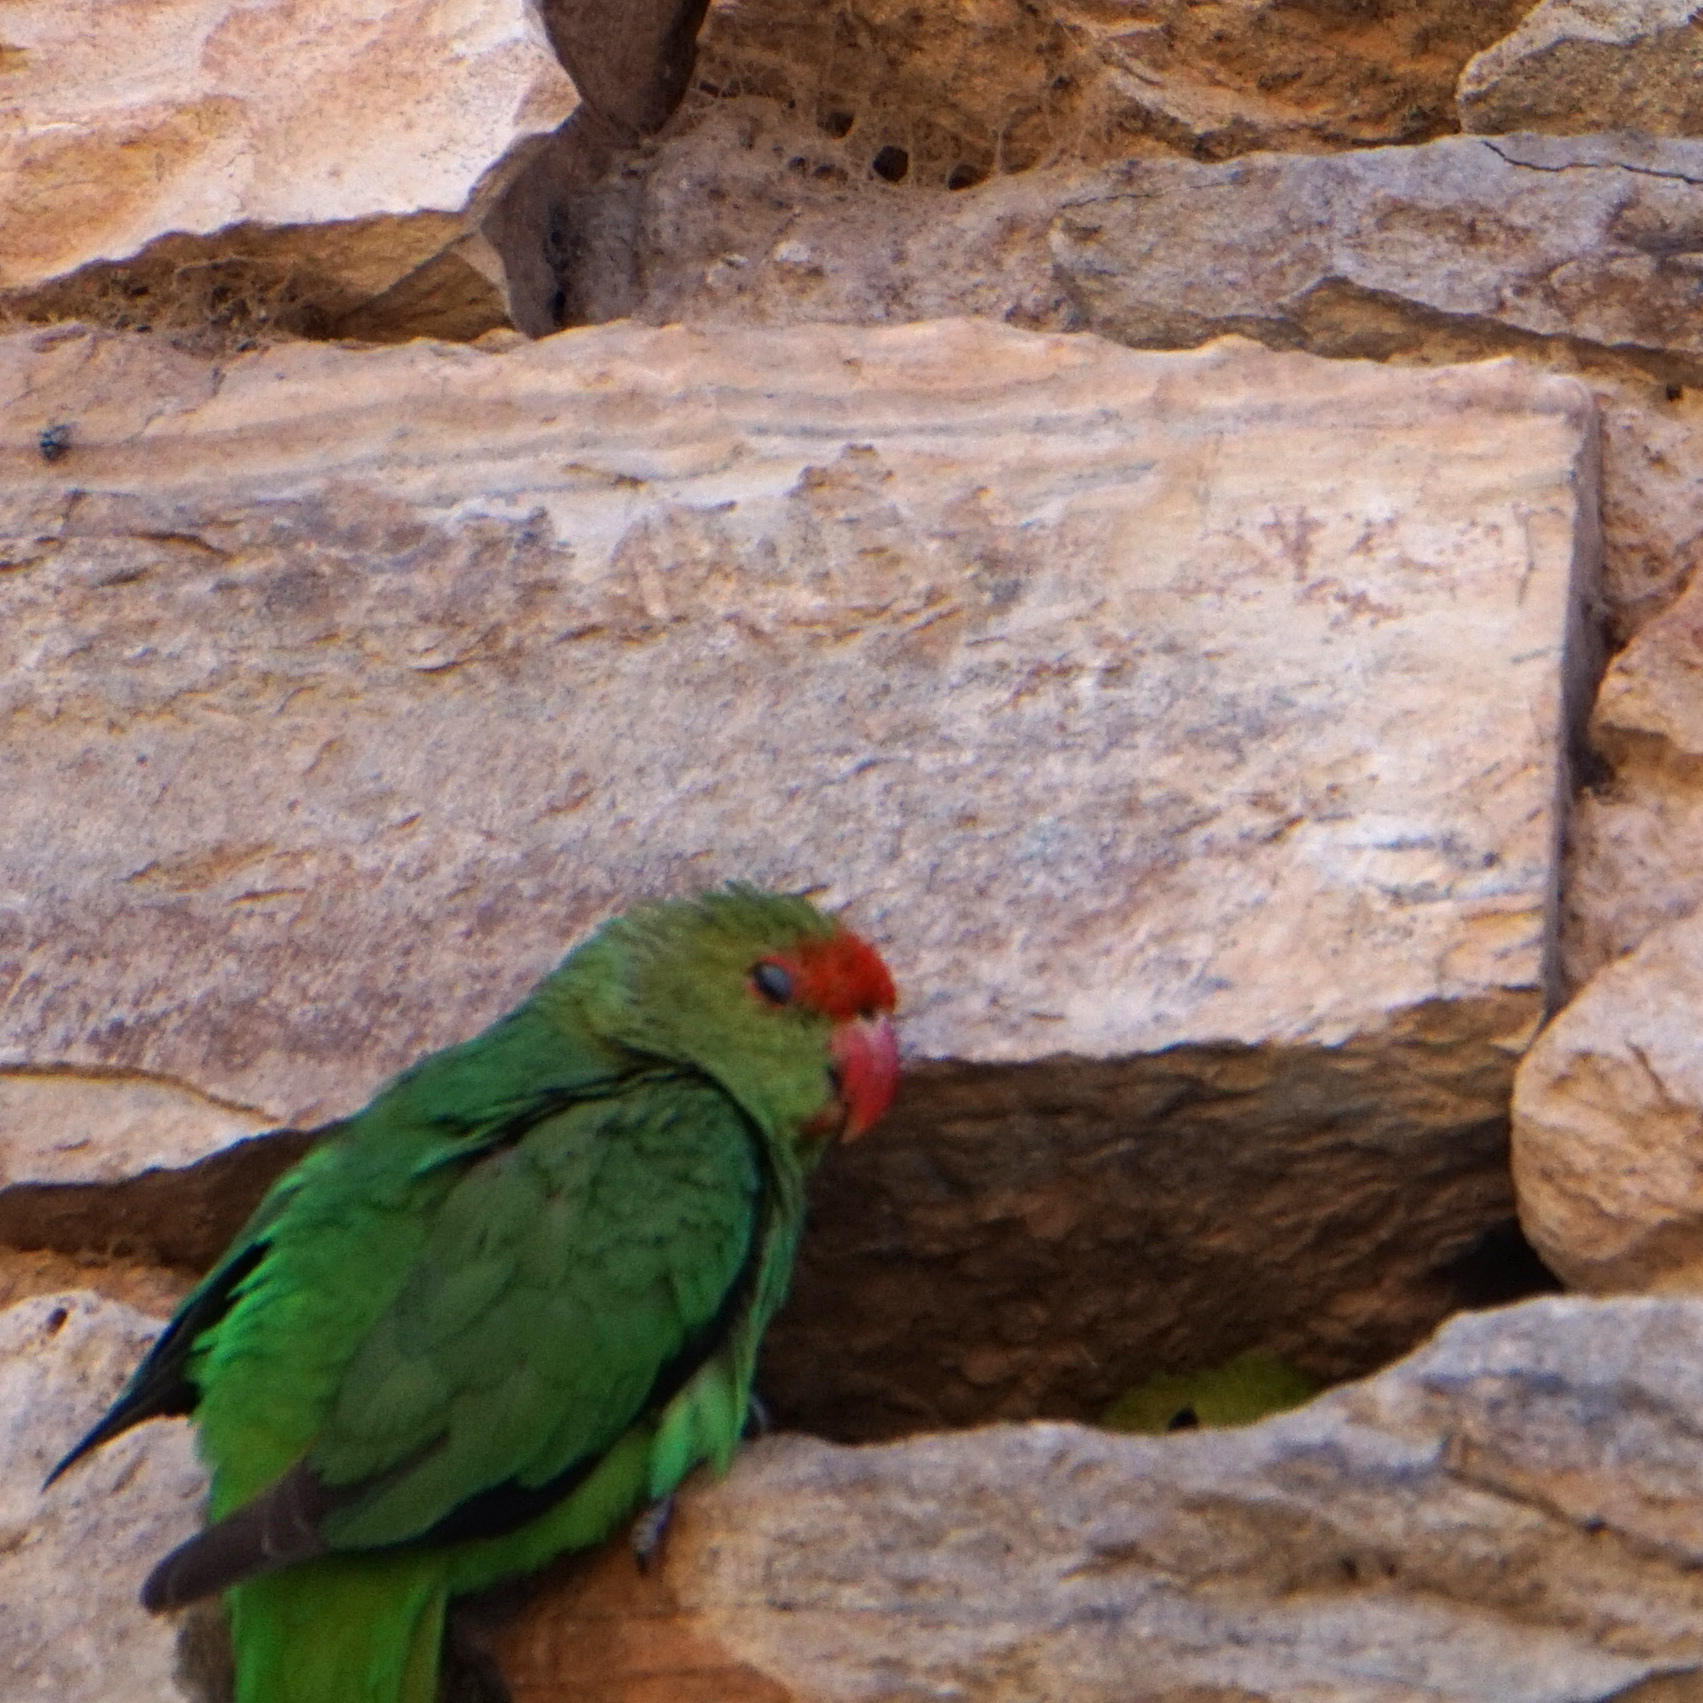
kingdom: Animalia
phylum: Chordata
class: Aves
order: Psittaciformes
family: Psittacidae
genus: Agapornis
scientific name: Agapornis taranta
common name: Black-winged lovebird
